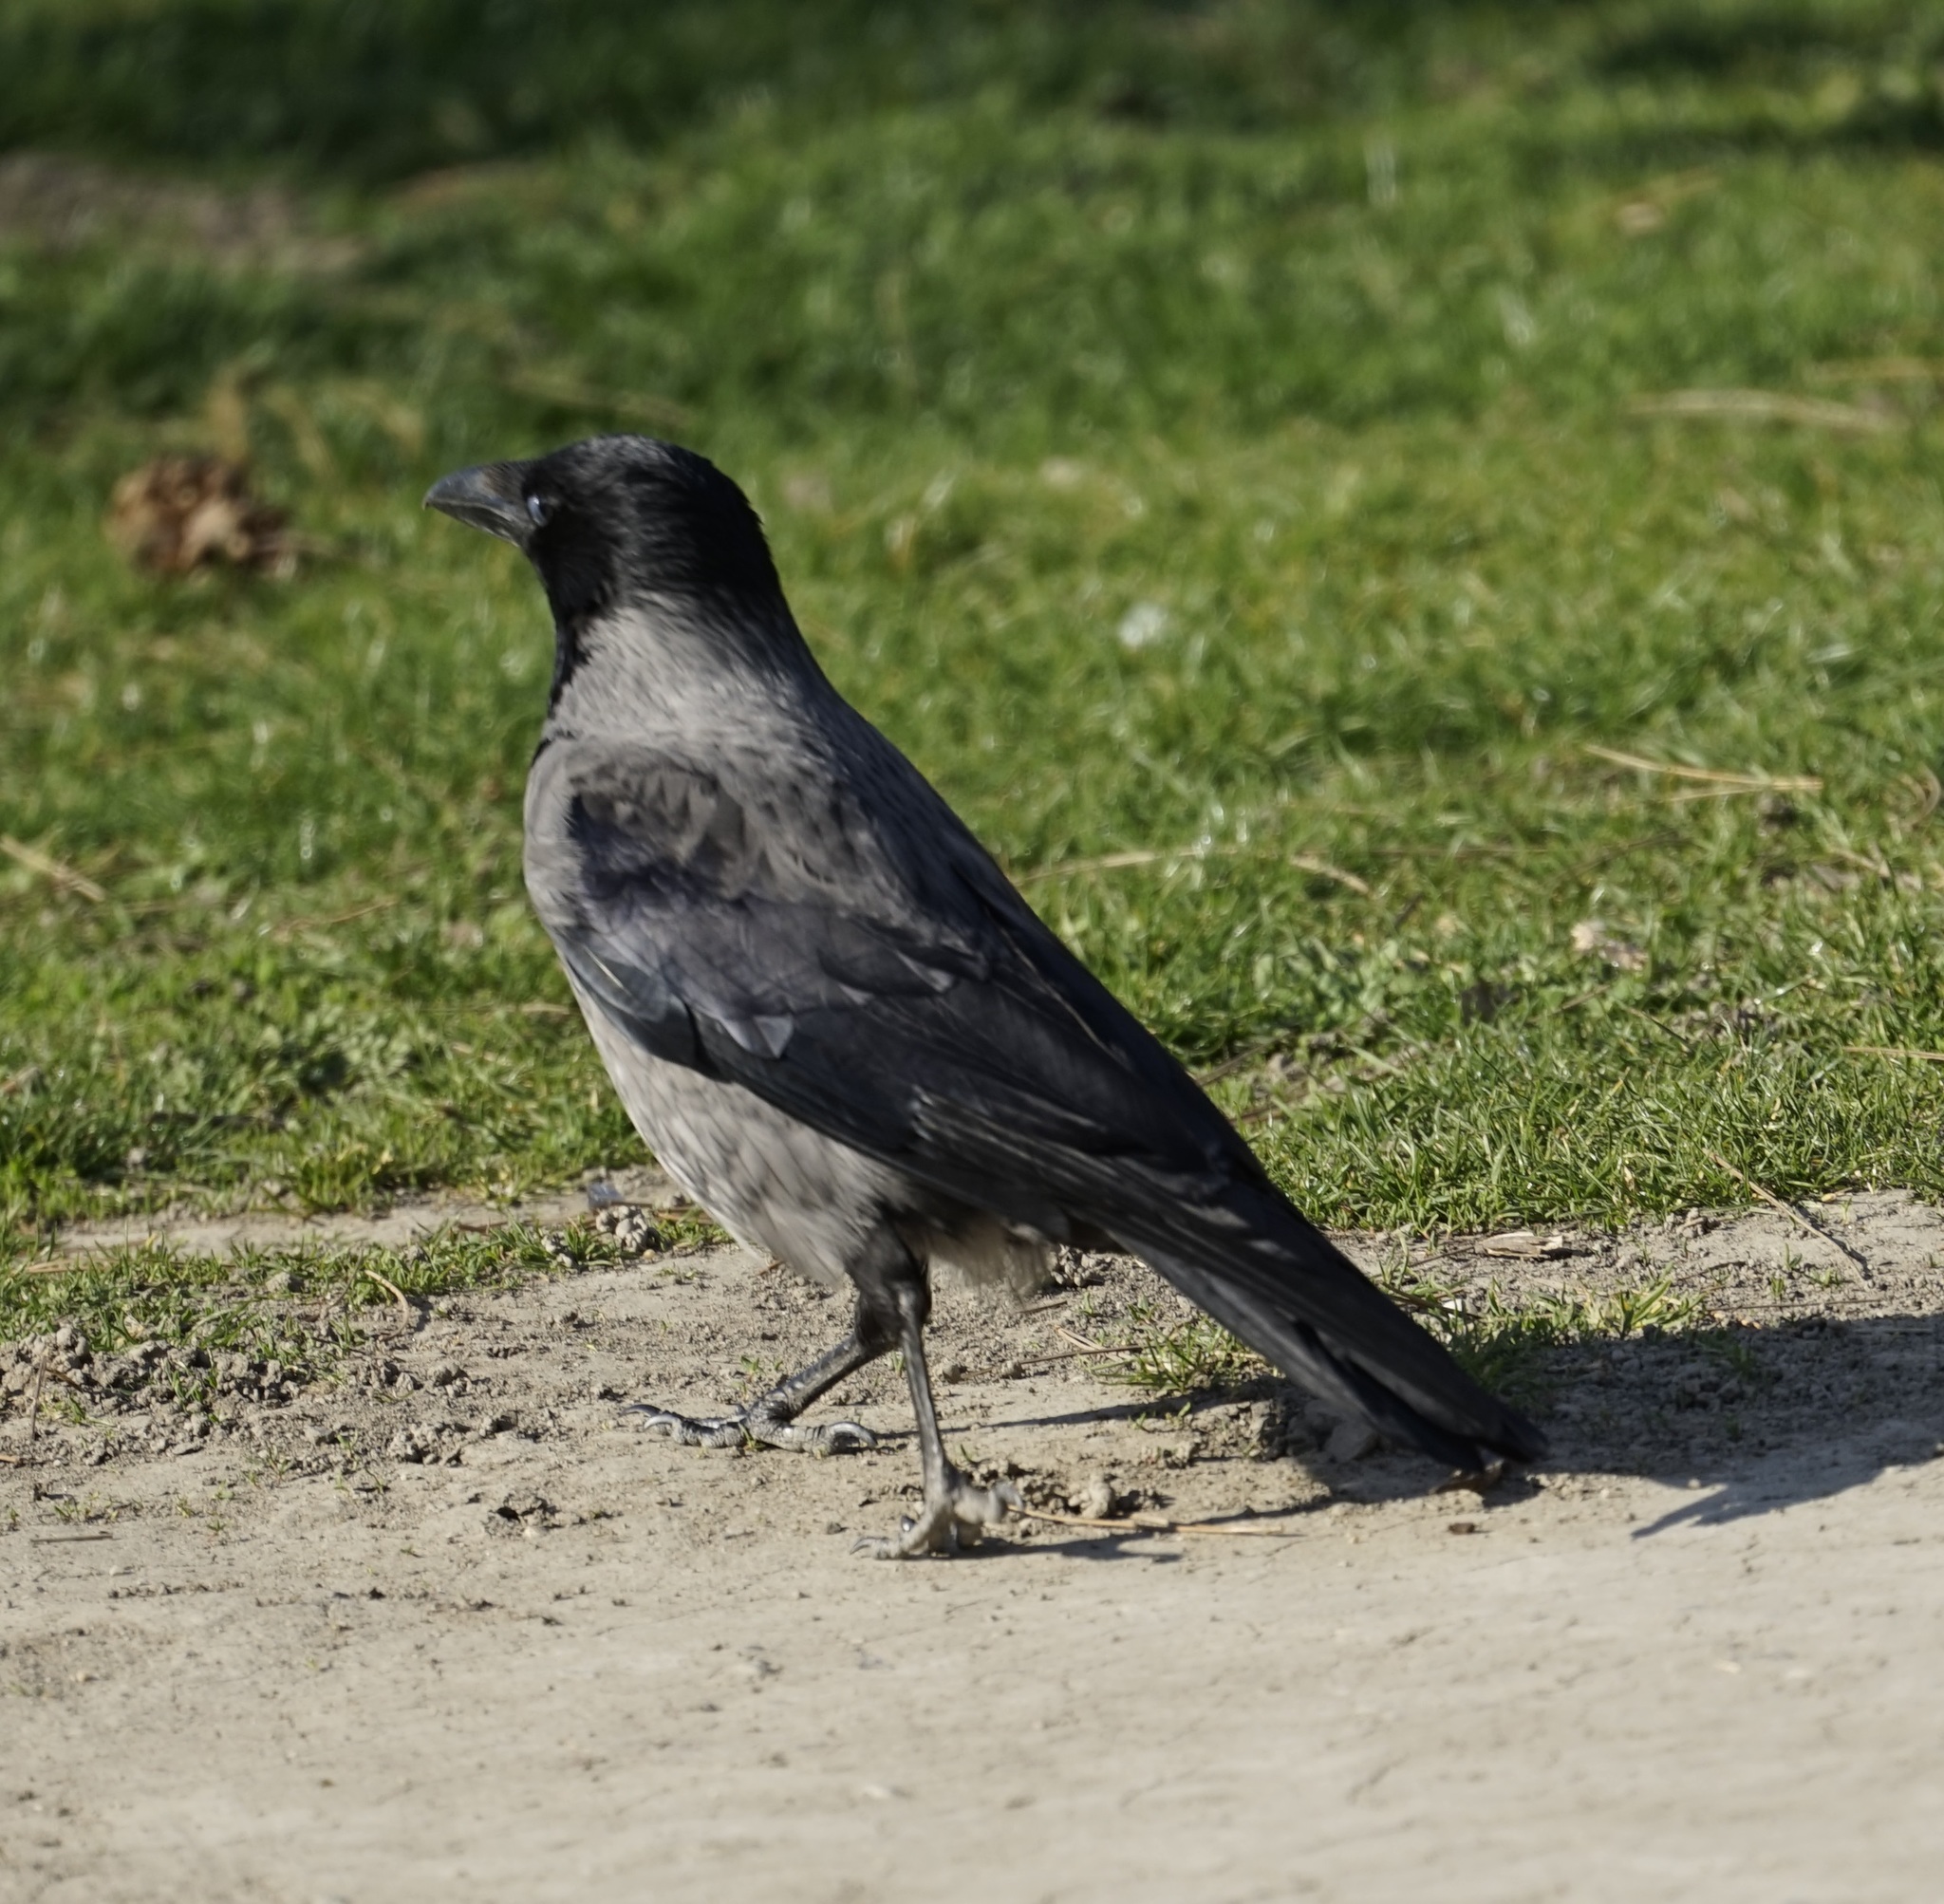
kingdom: Animalia
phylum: Chordata
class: Aves
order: Passeriformes
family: Corvidae
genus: Corvus
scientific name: Corvus cornix
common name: Hooded crow
